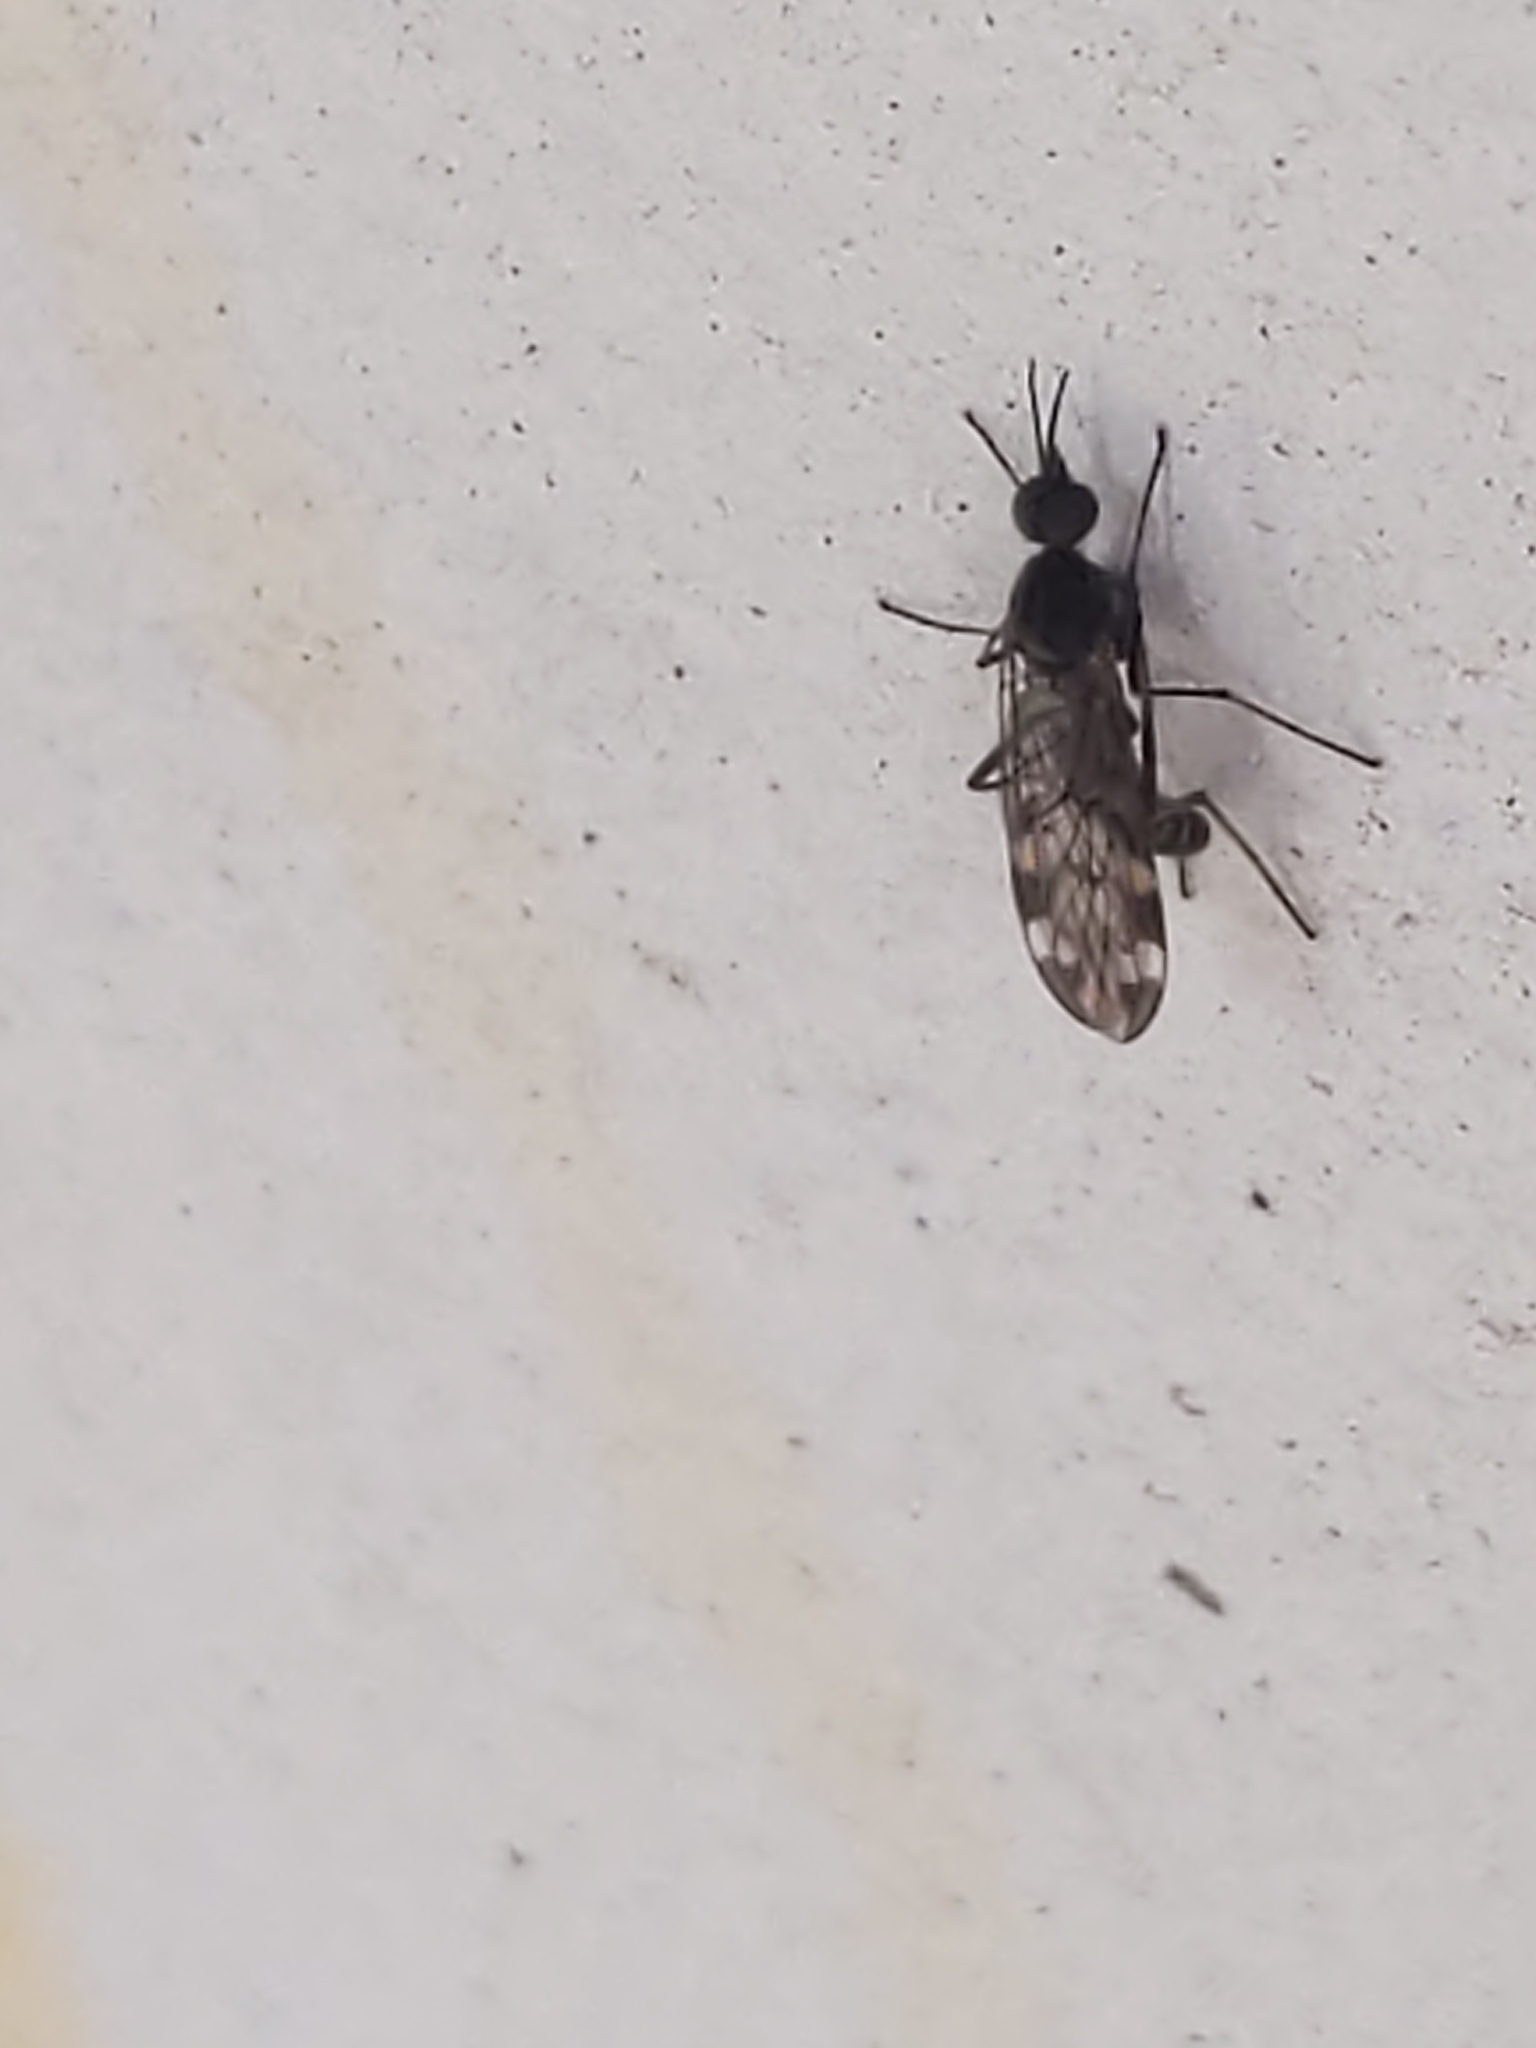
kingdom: Animalia
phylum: Arthropoda
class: Insecta
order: Diptera
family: Anisopodidae
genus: Sylvicola
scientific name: Sylvicola alternata
